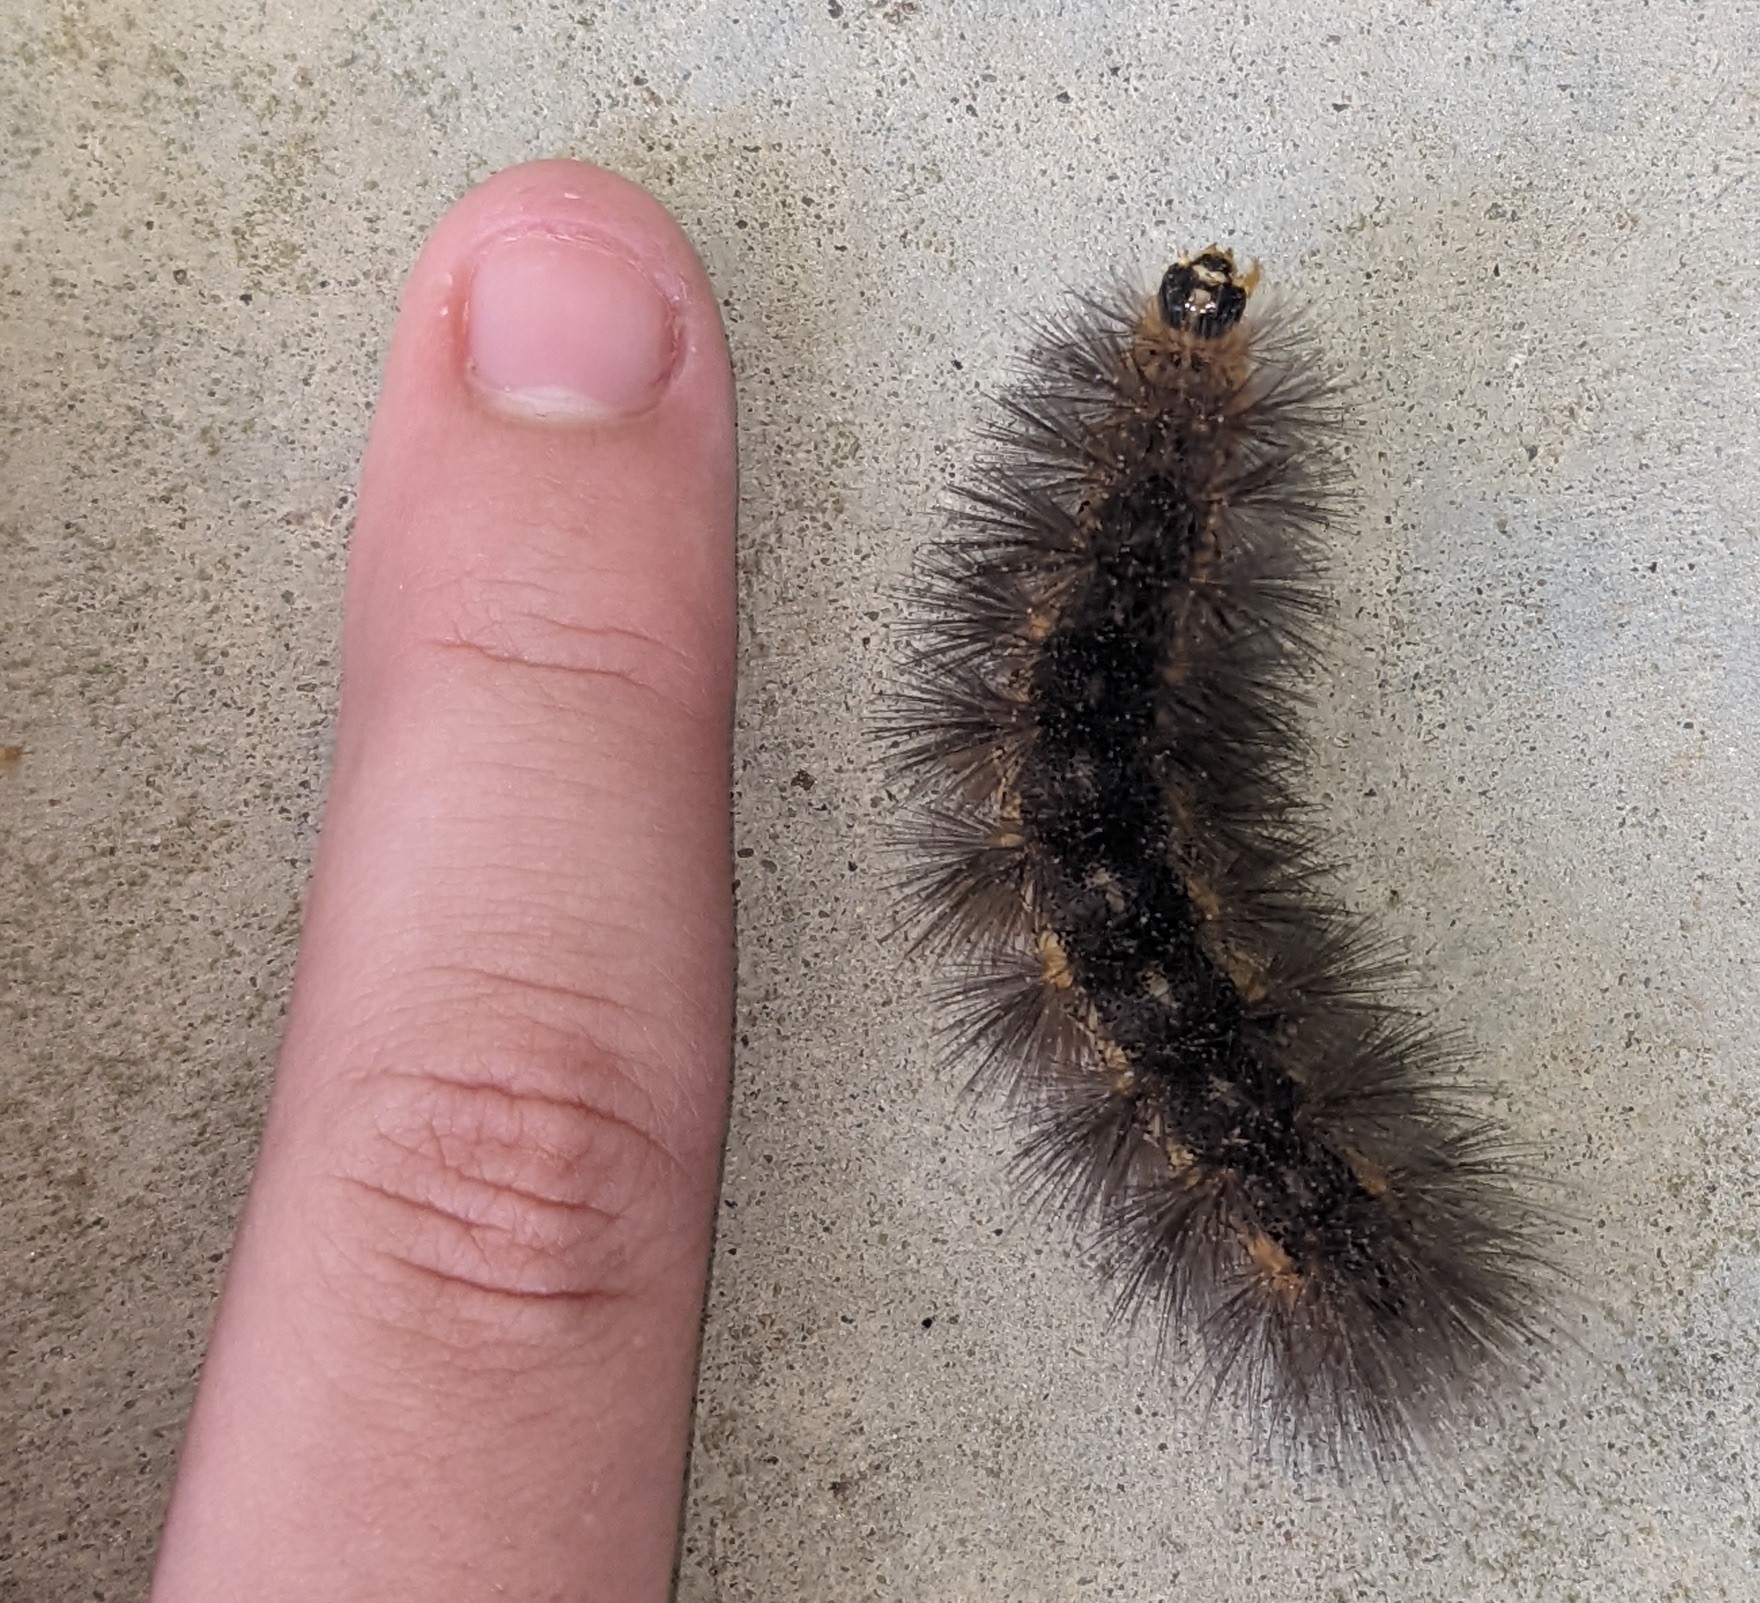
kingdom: Animalia
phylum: Arthropoda
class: Insecta
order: Lepidoptera
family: Erebidae
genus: Estigmene
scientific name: Estigmene acrea
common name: Salt marsh moth
